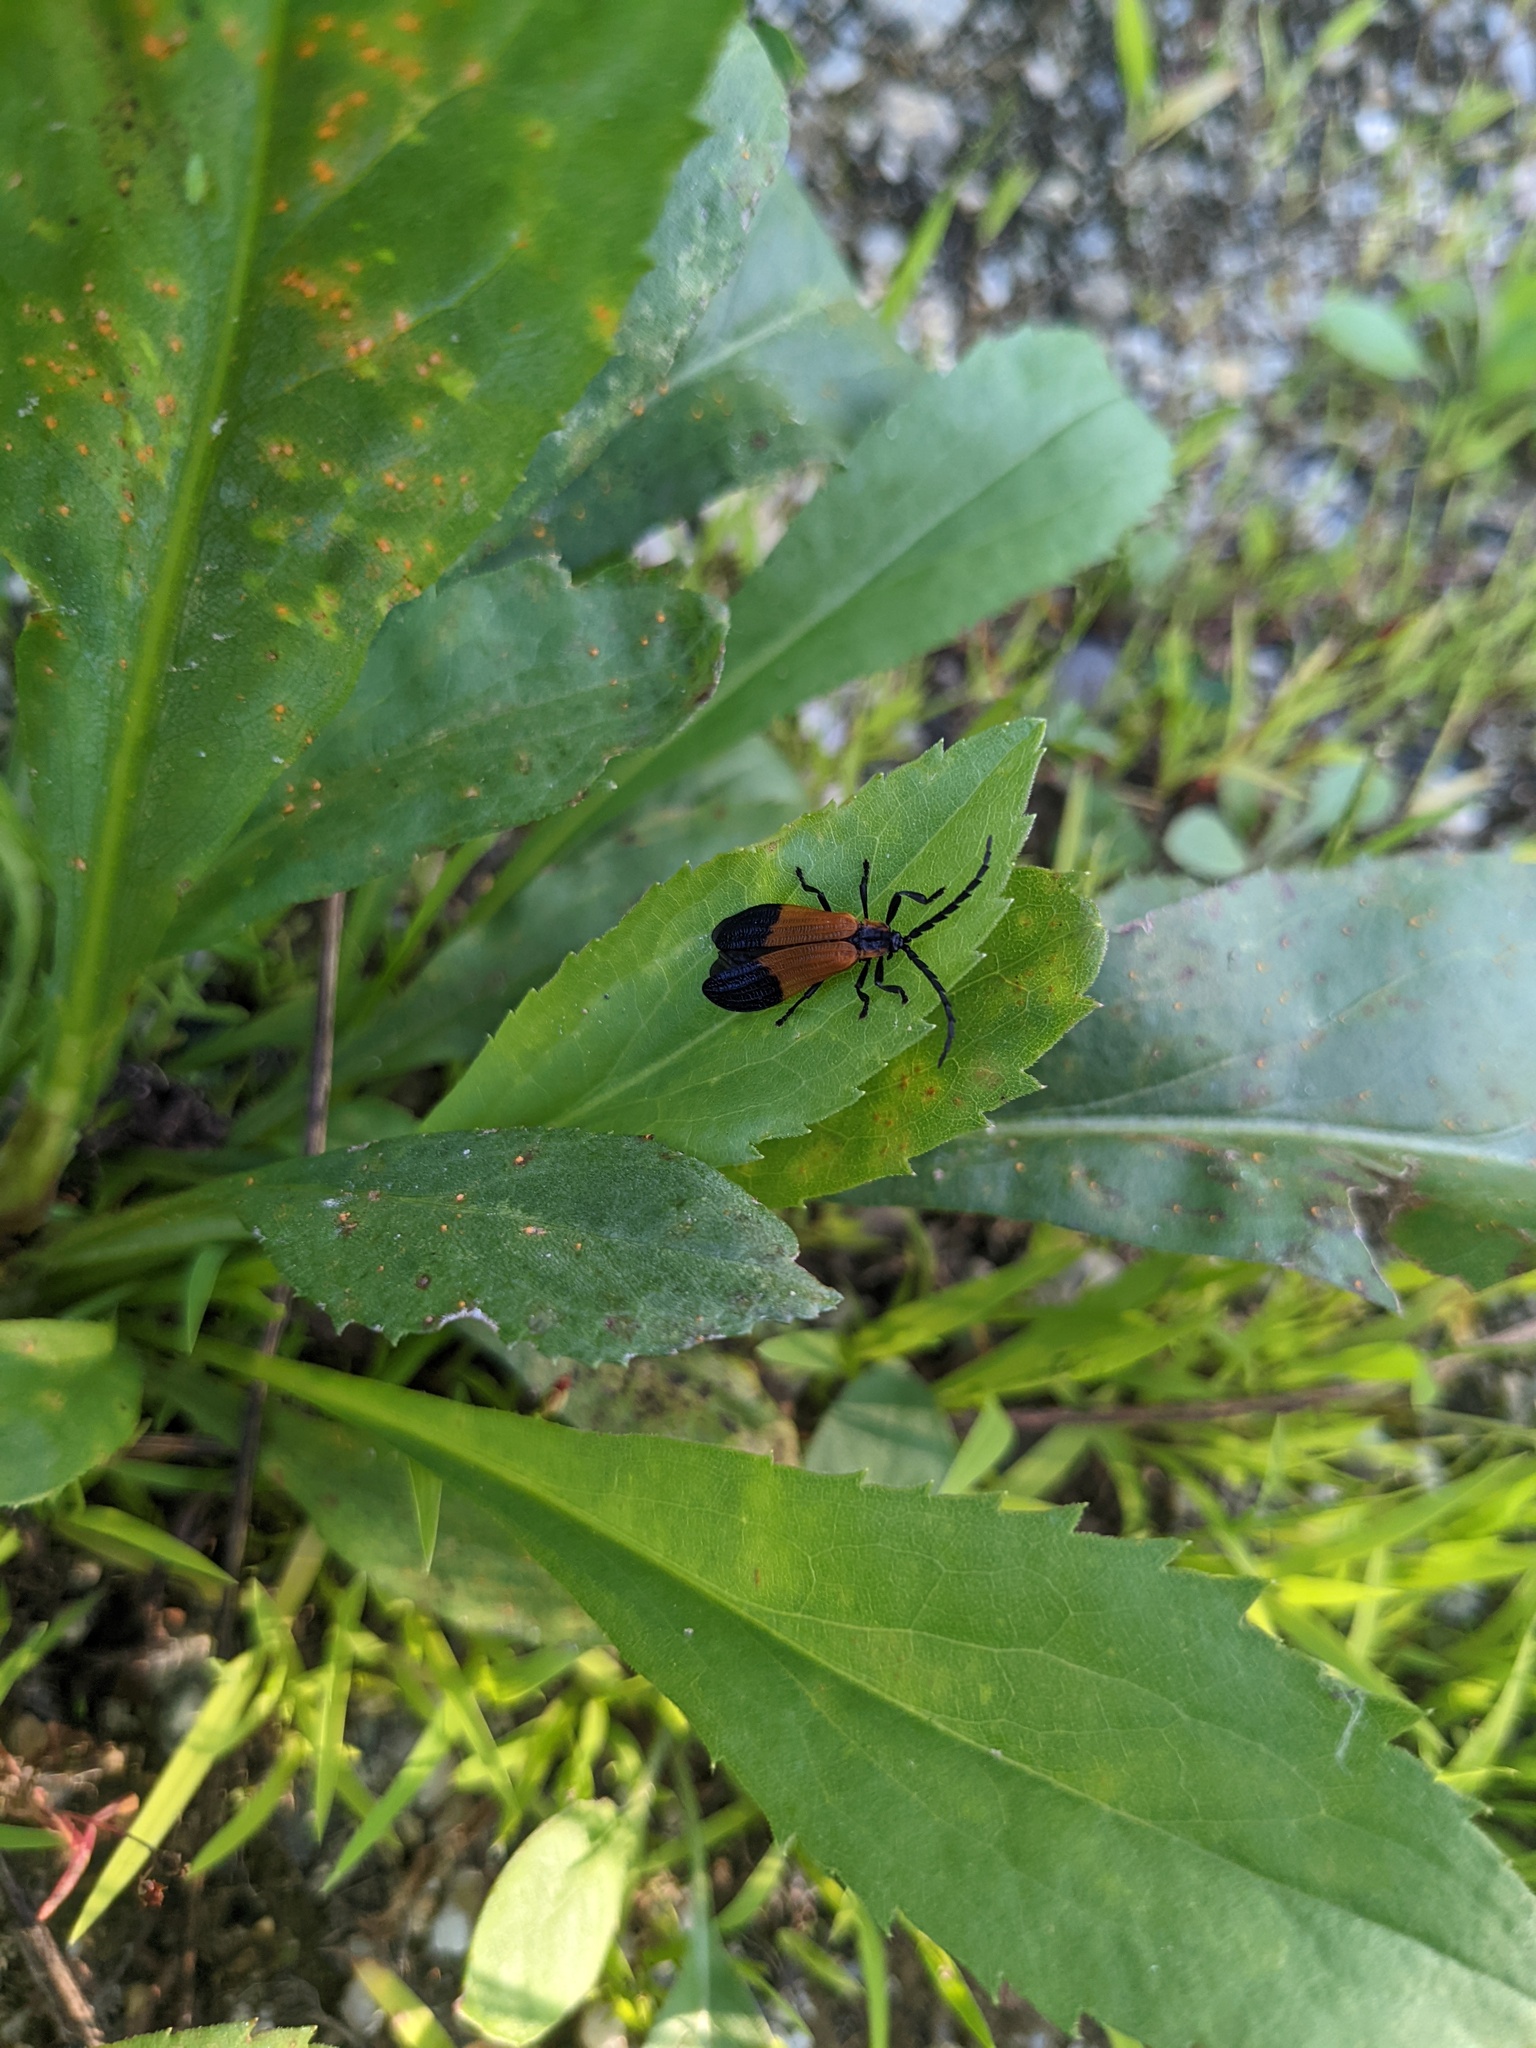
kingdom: Animalia
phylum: Arthropoda
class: Insecta
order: Coleoptera
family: Lycidae
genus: Calopteron
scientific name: Calopteron terminale
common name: End band net-winged beetle
